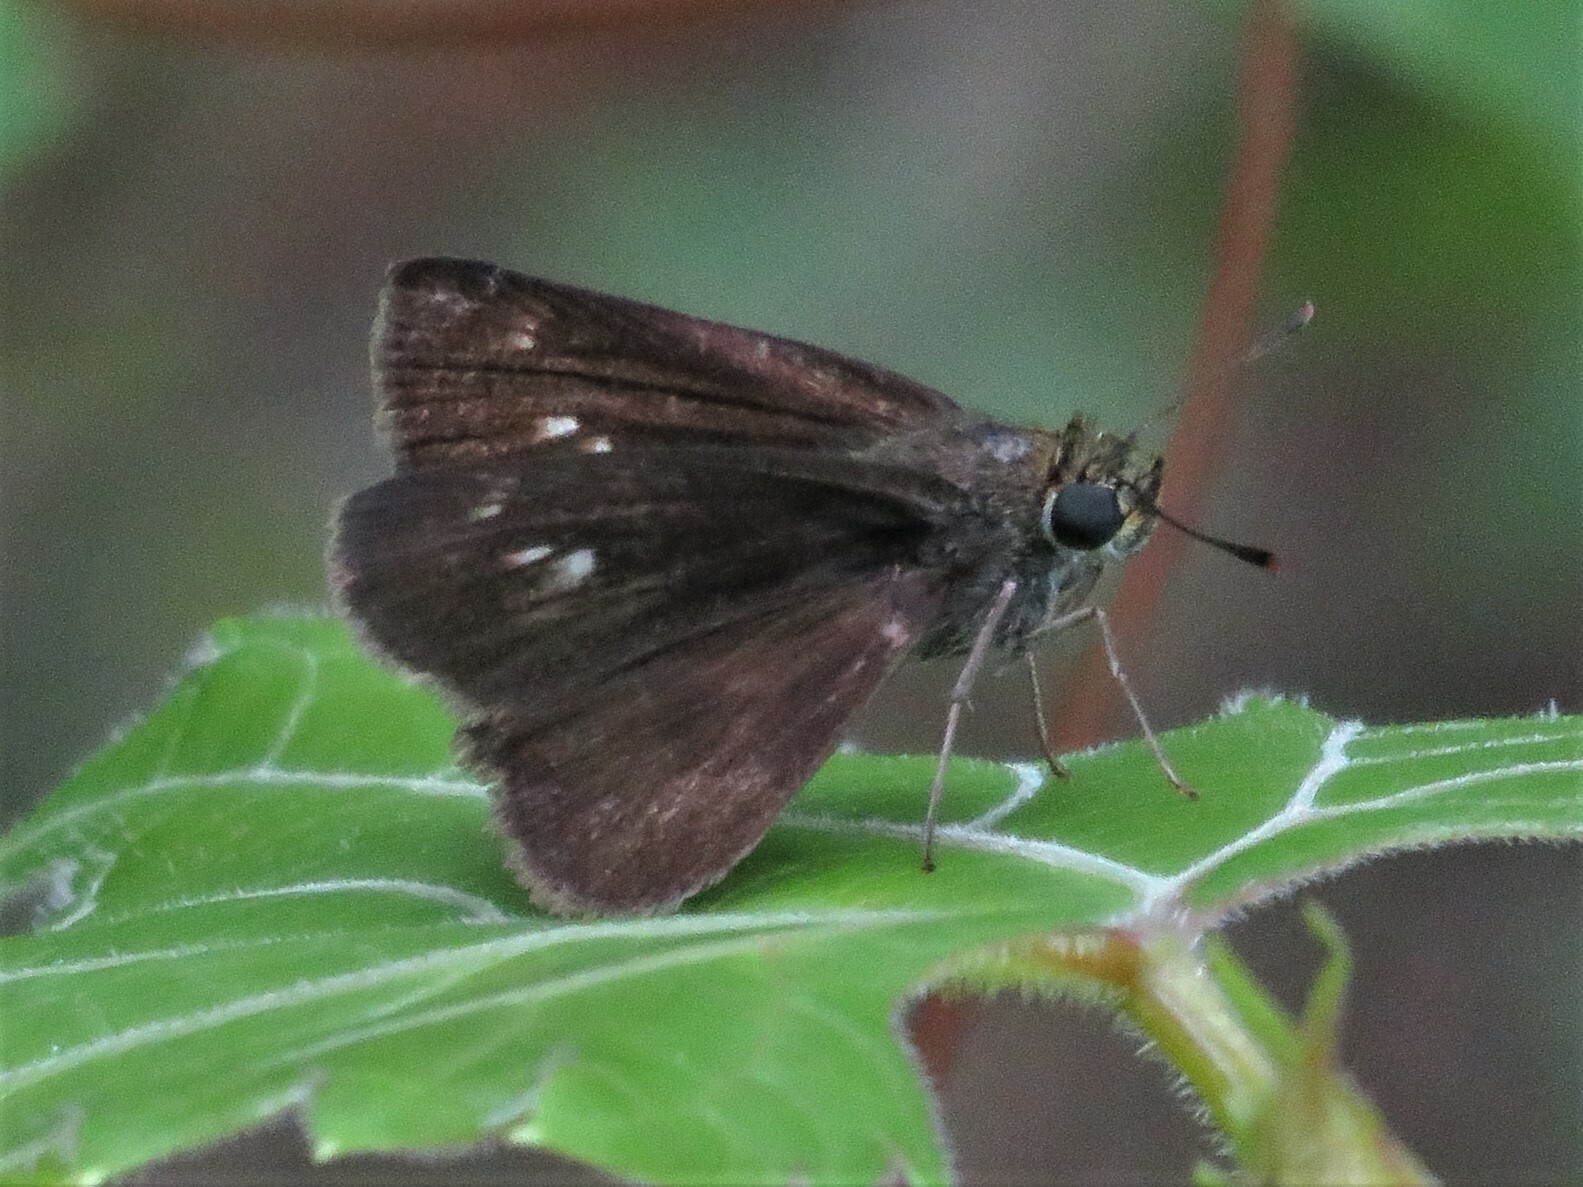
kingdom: Animalia
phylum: Arthropoda
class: Insecta
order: Lepidoptera
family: Hesperiidae
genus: Euphyes
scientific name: Euphyes vestris
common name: Dun skipper
